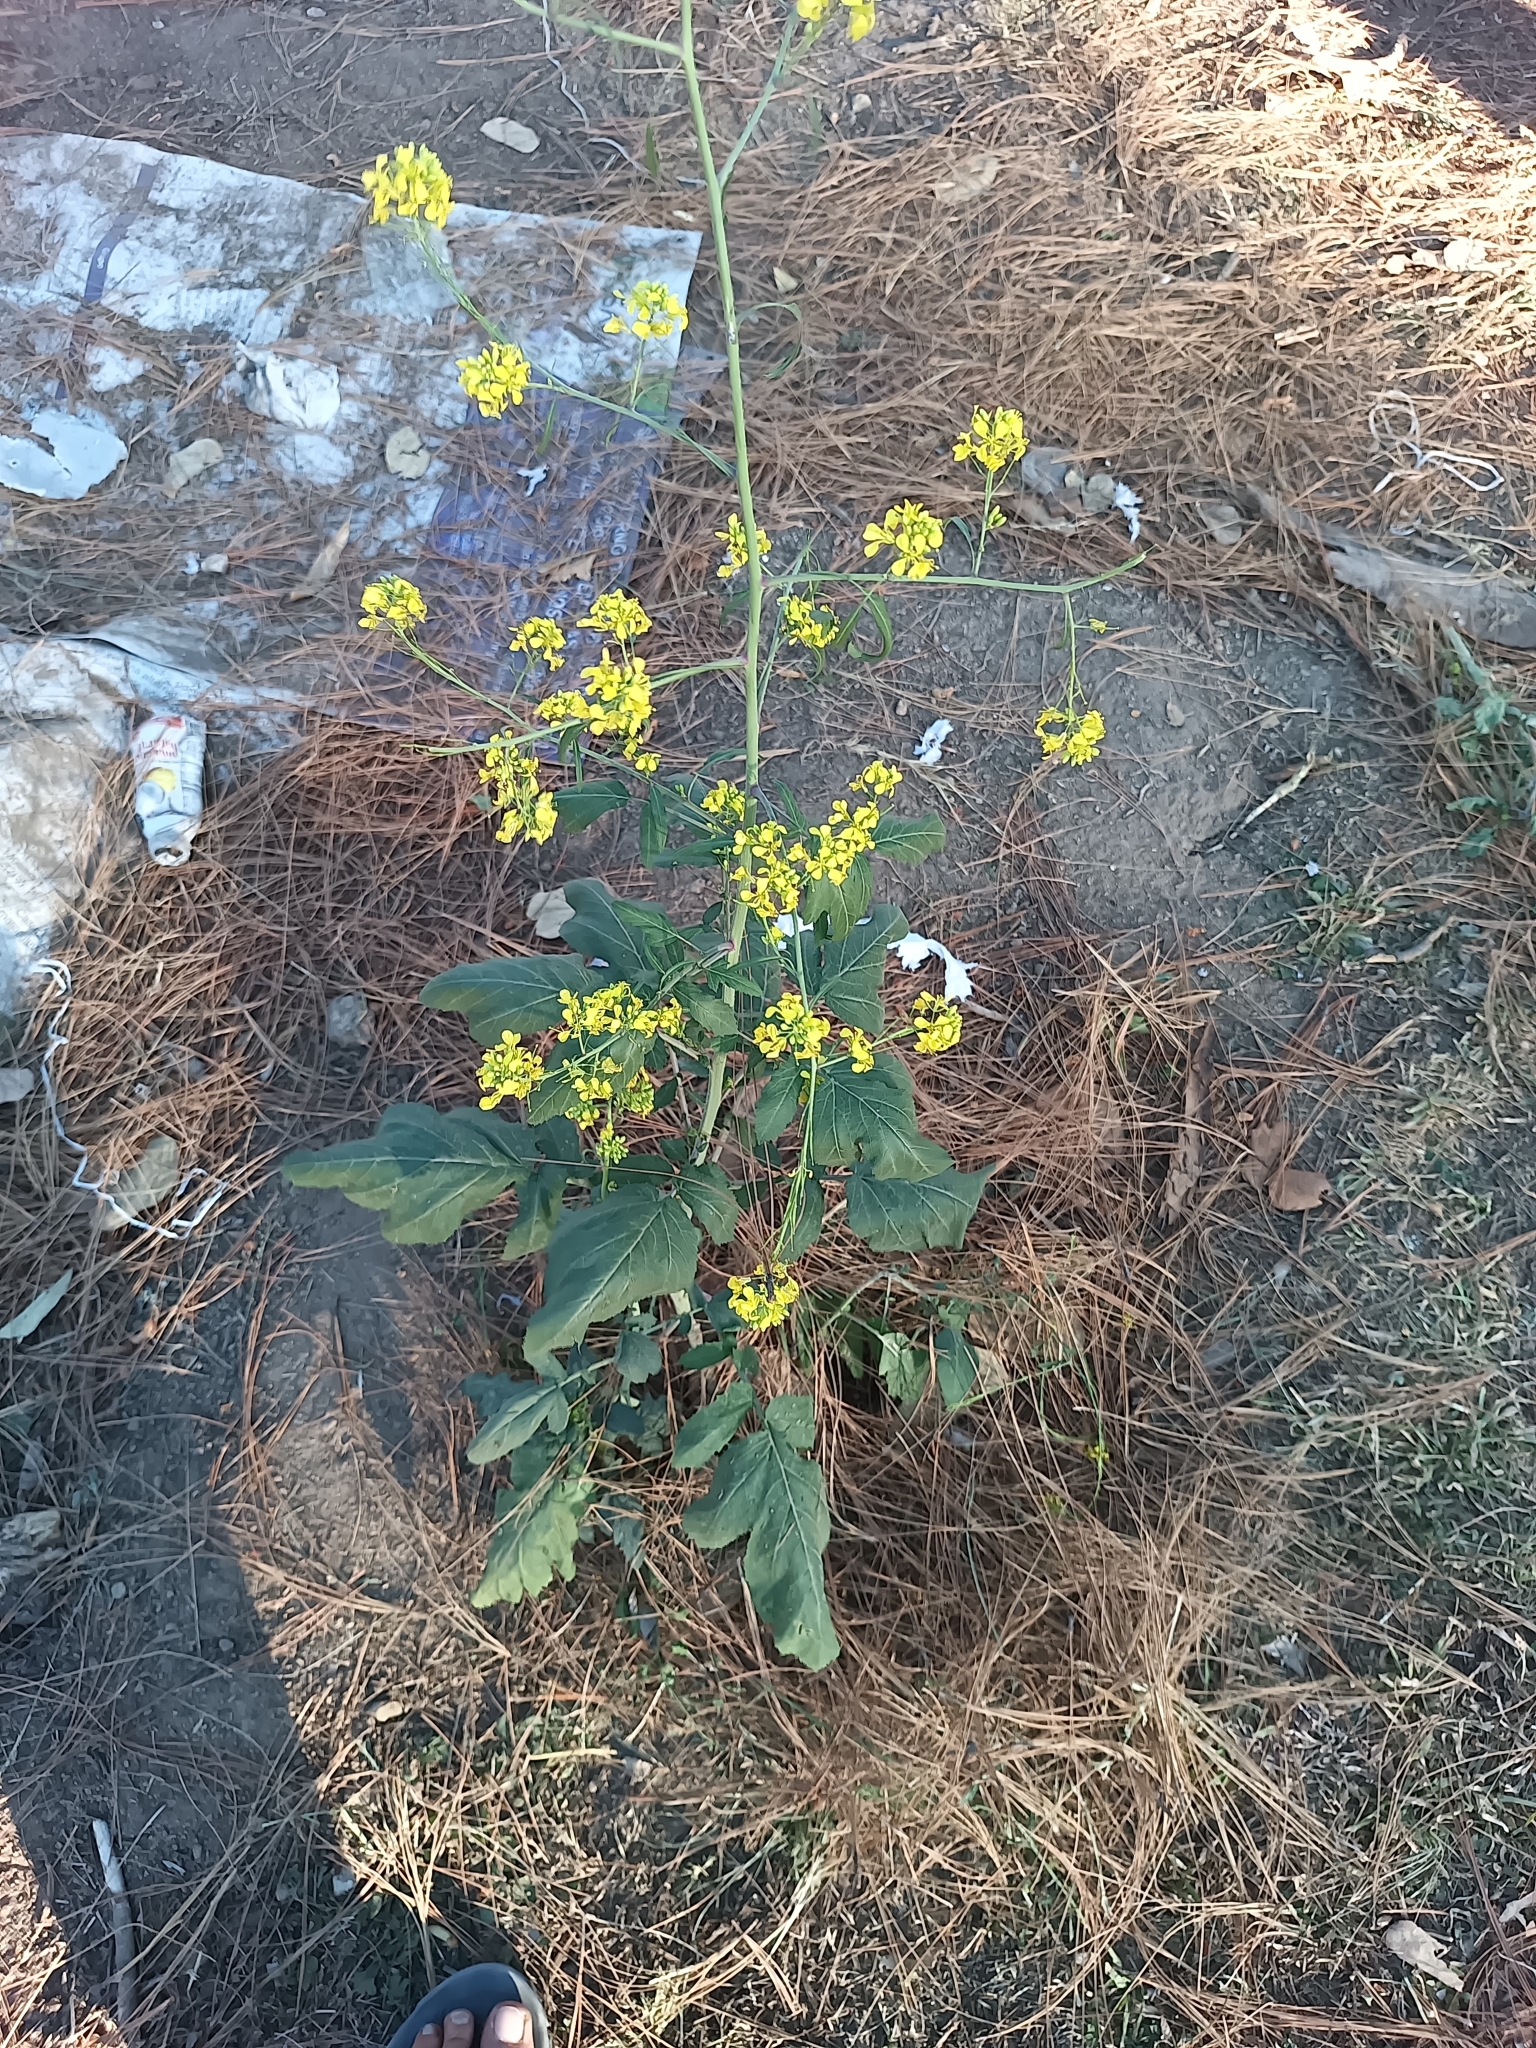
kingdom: Plantae
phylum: Tracheophyta
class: Magnoliopsida
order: Brassicales
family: Brassicaceae
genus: Brassica
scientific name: Brassica napus
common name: Rape
